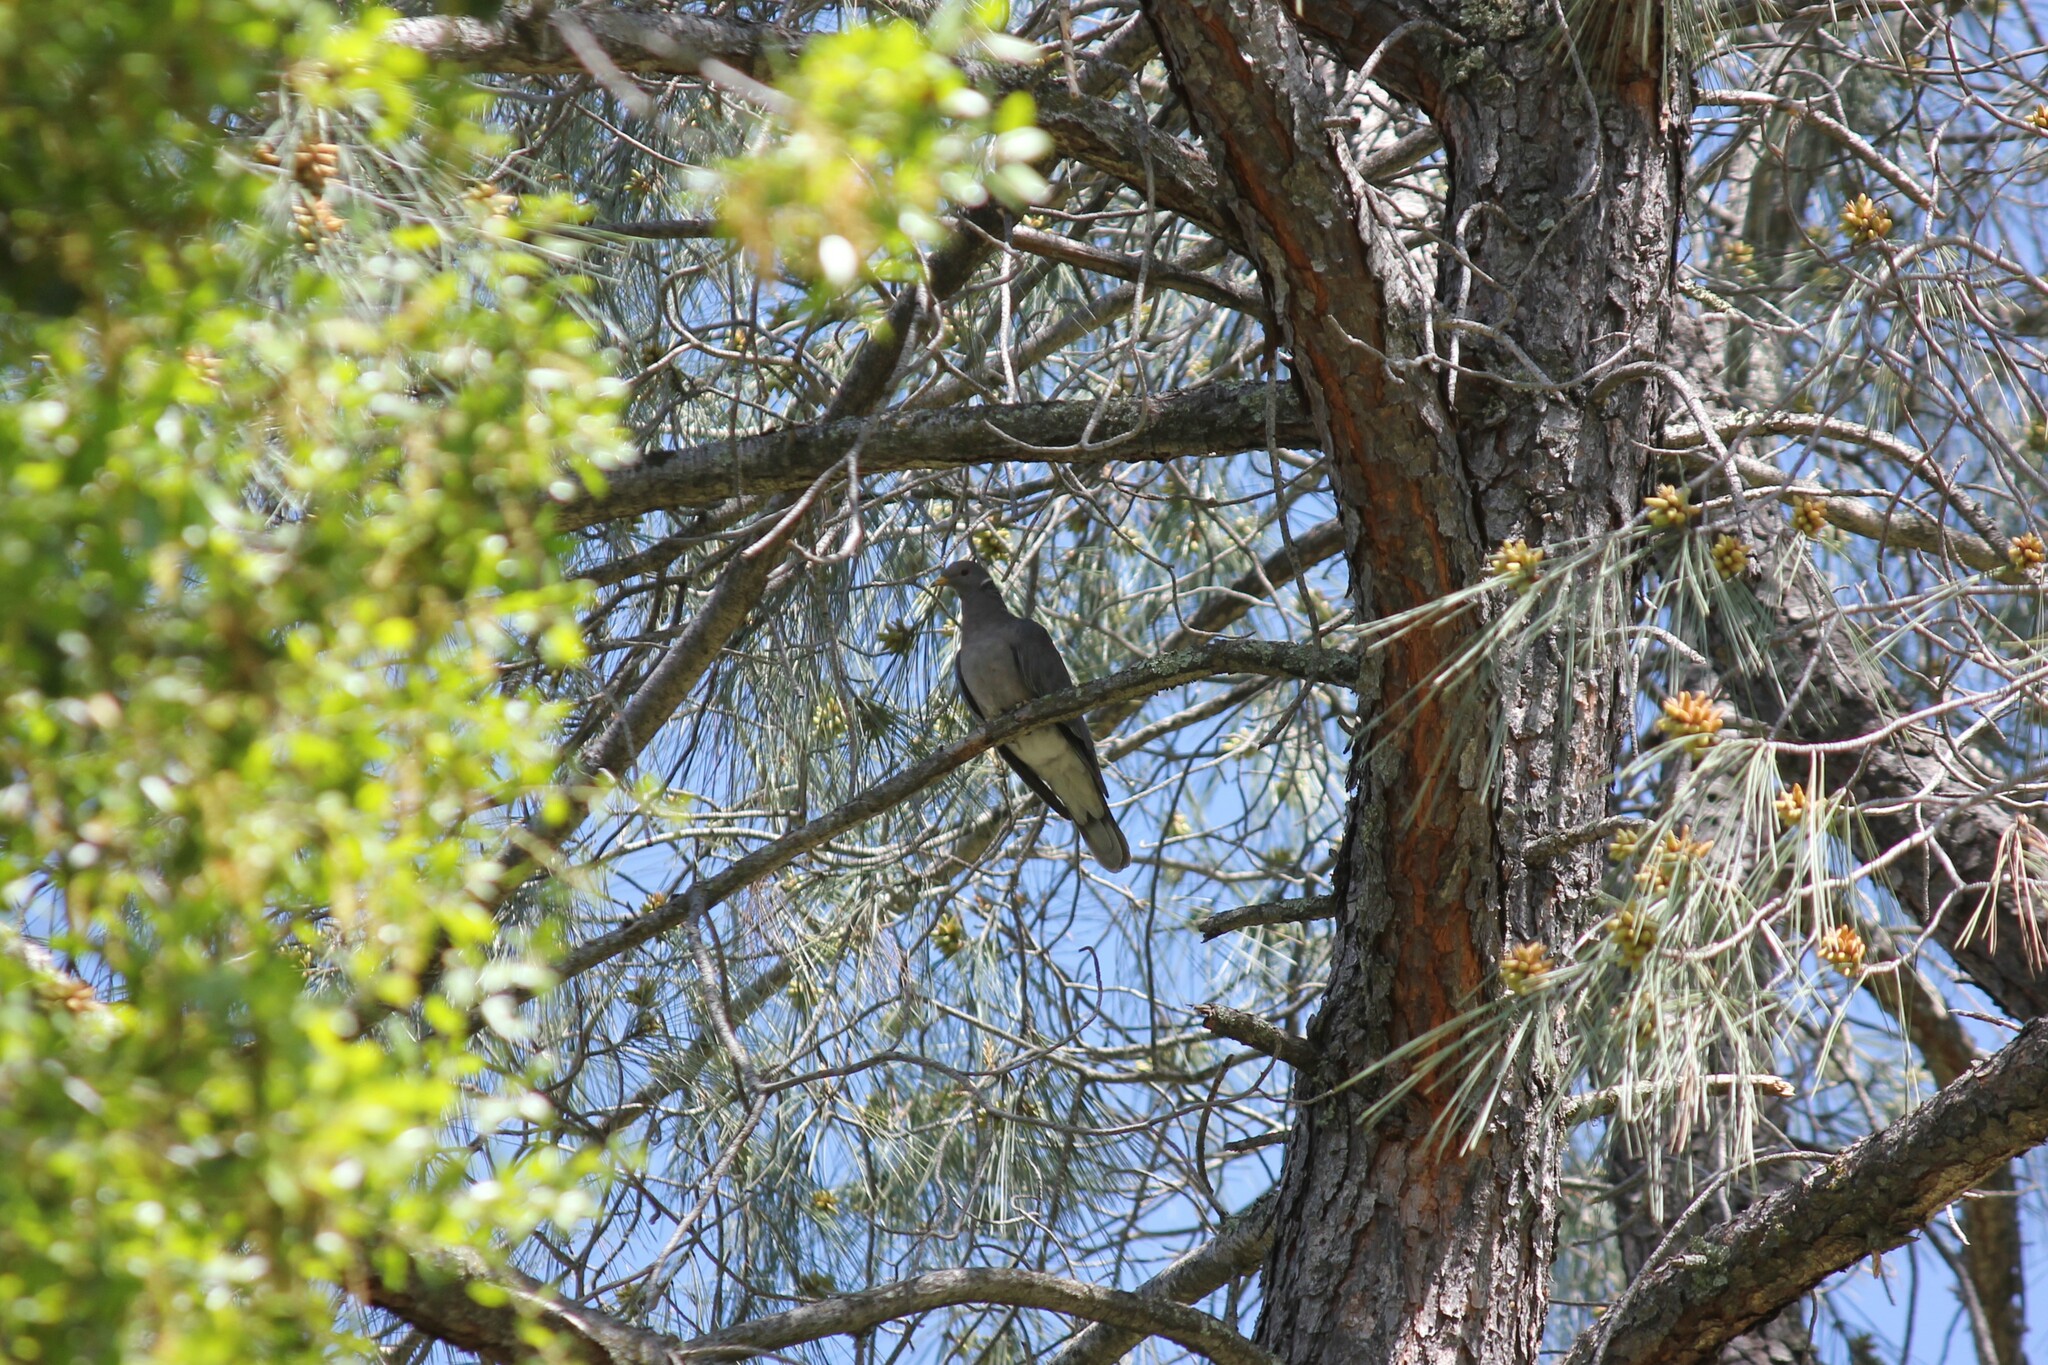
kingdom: Animalia
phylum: Chordata
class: Aves
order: Columbiformes
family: Columbidae
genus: Patagioenas
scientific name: Patagioenas fasciata
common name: Band-tailed pigeon
